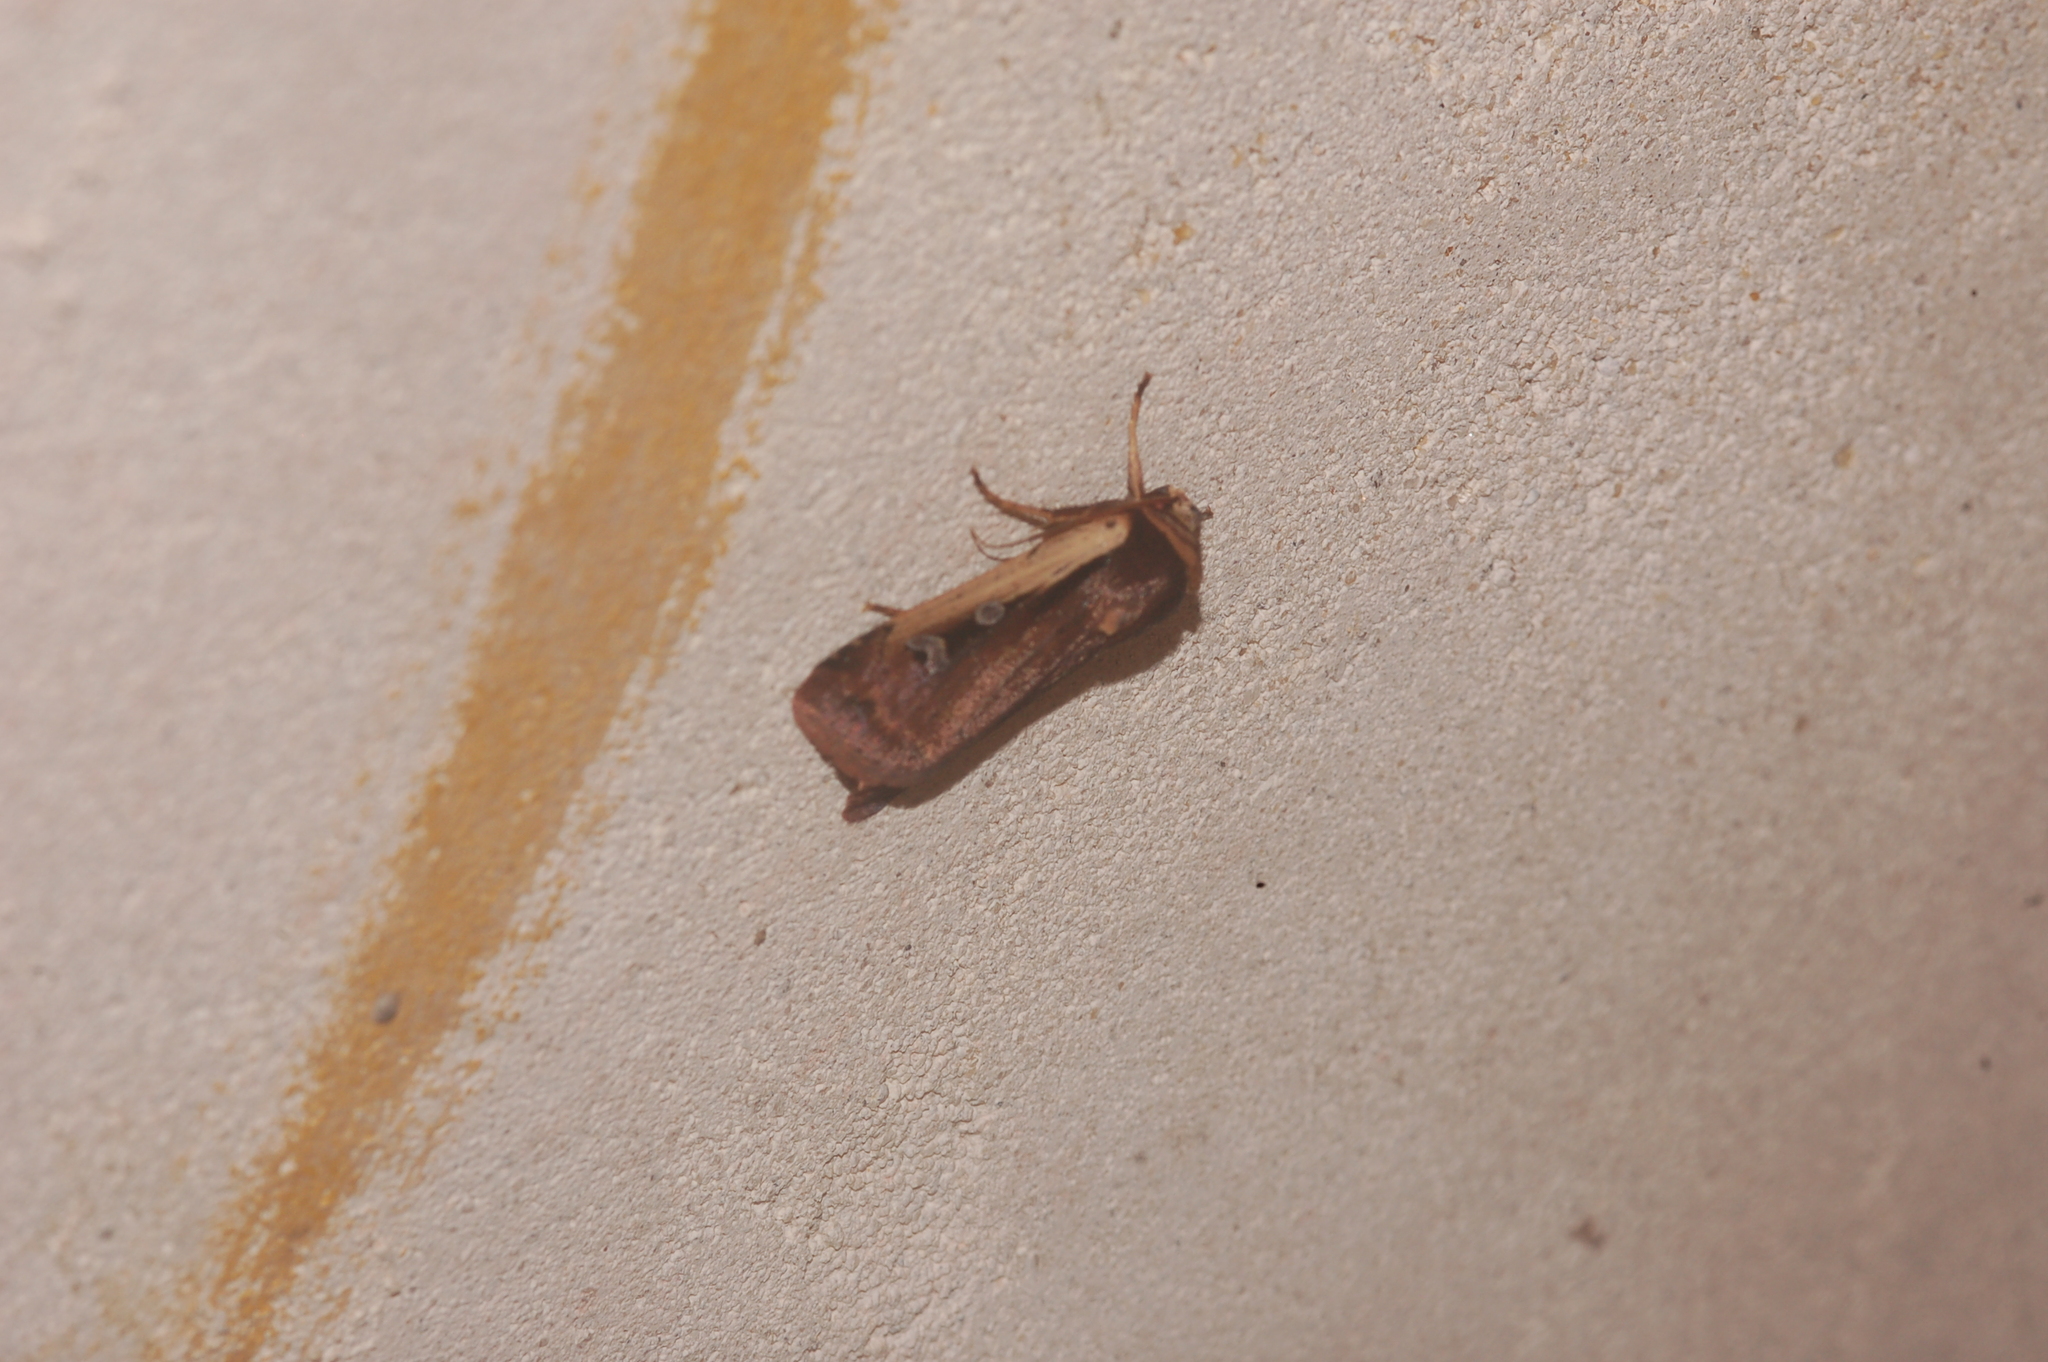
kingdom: Animalia
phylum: Arthropoda
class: Insecta
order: Lepidoptera
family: Noctuidae
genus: Ochropleura
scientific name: Ochropleura implecta
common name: Flame-shouldered dart
